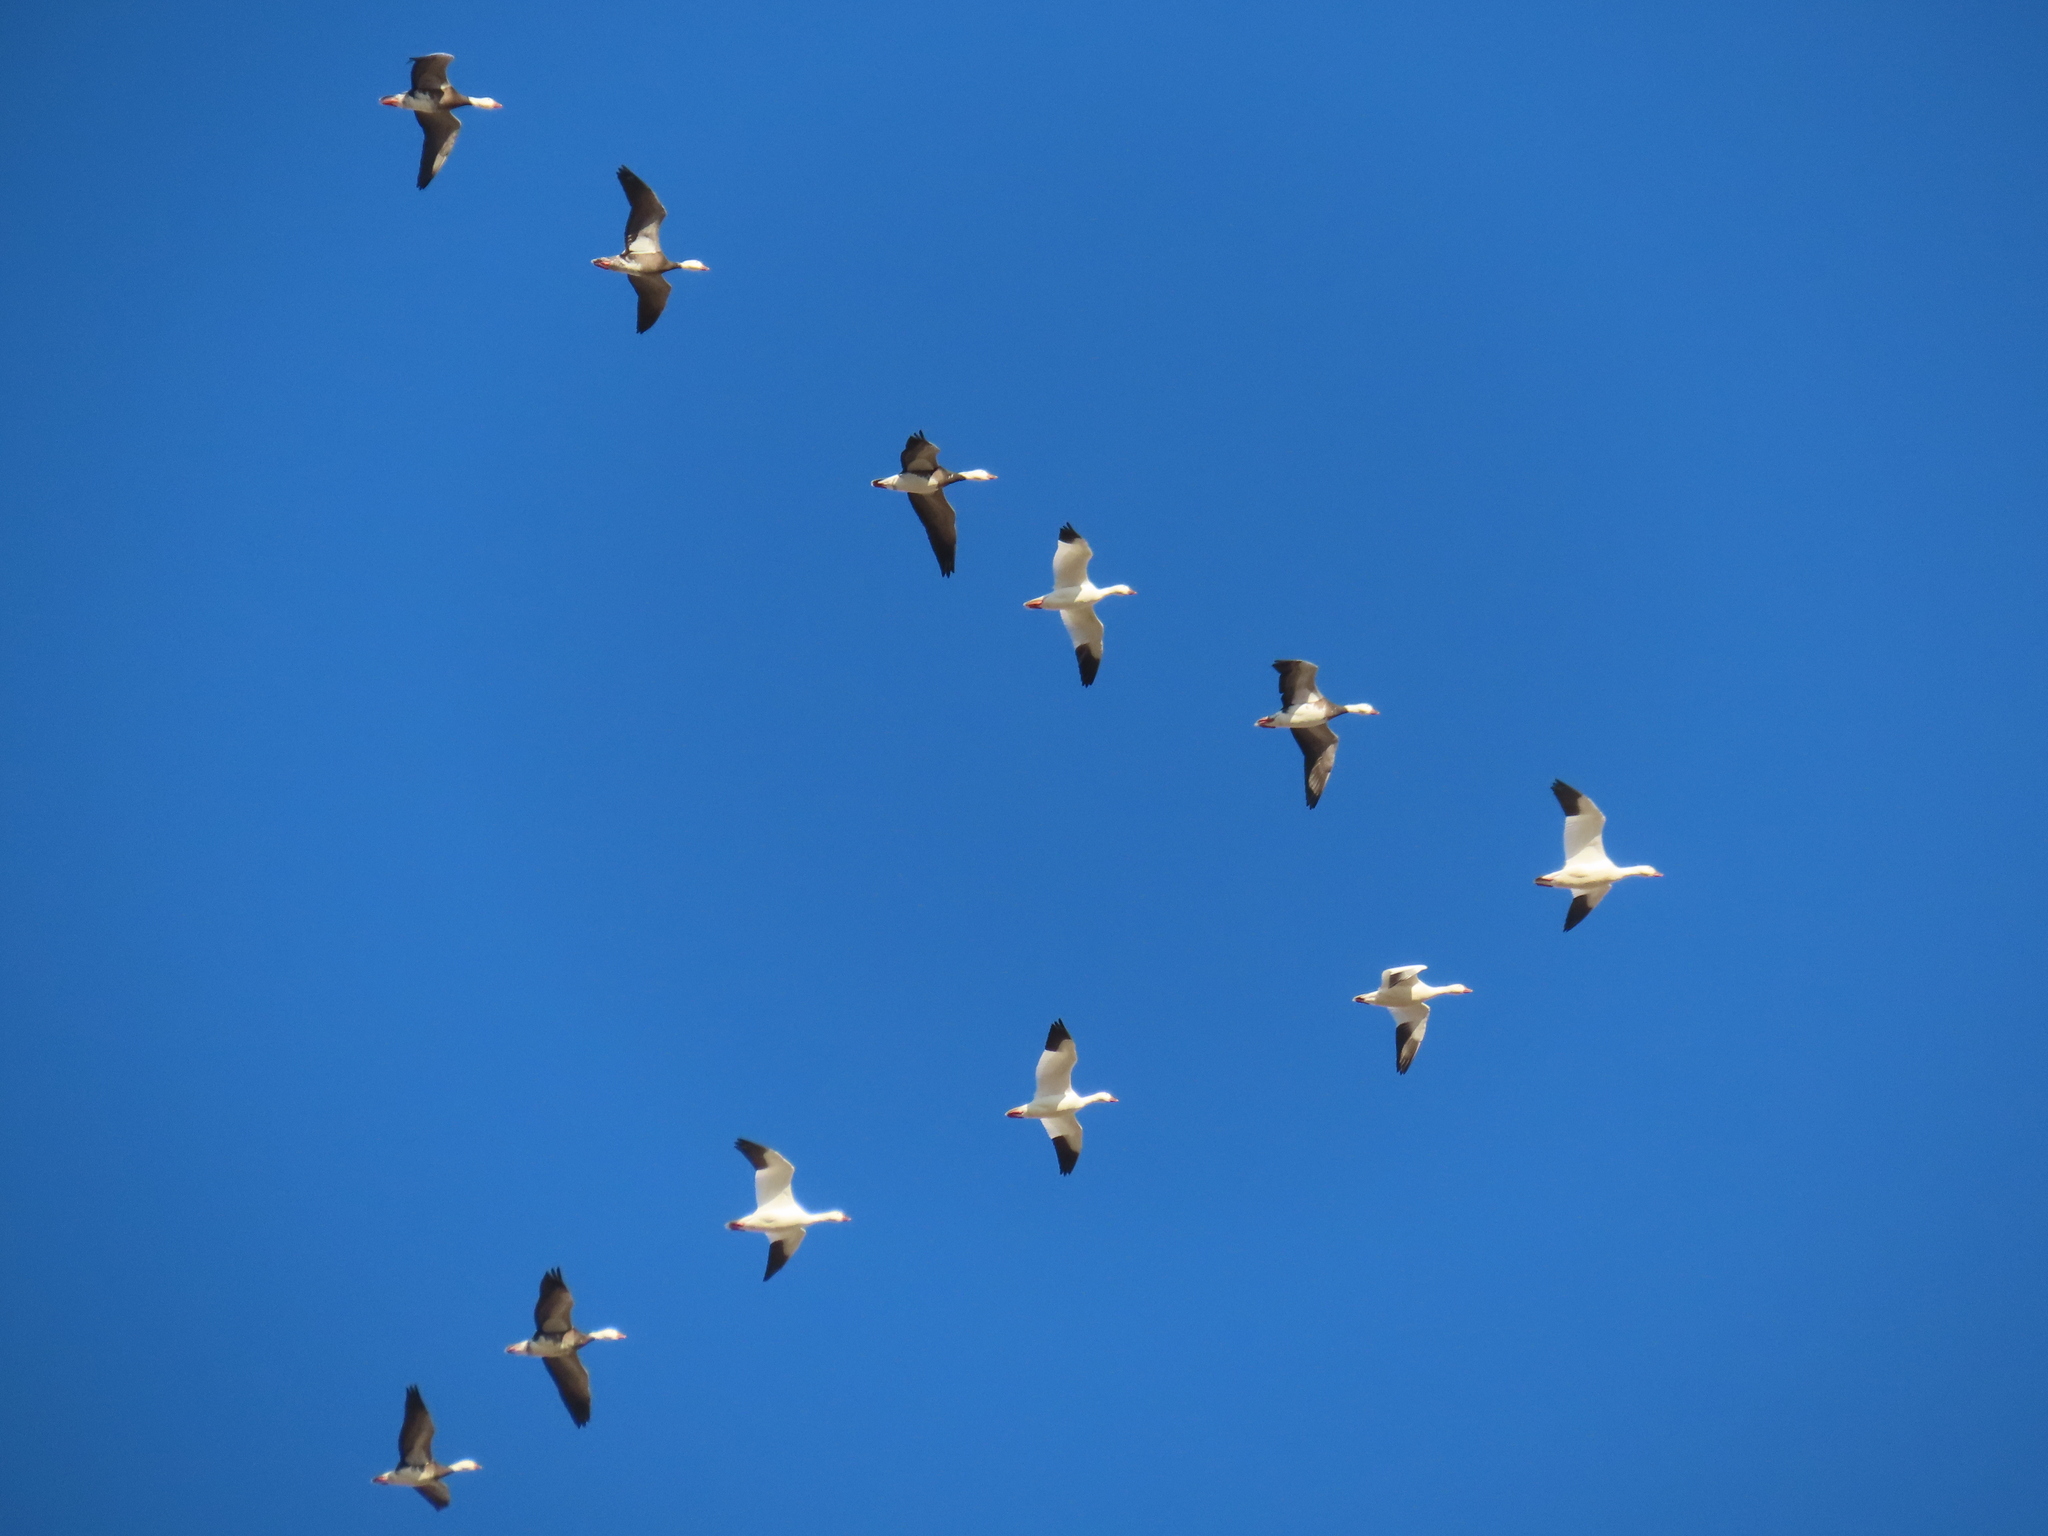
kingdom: Animalia
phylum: Chordata
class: Aves
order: Anseriformes
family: Anatidae
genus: Anser
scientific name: Anser caerulescens
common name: Snow goose
